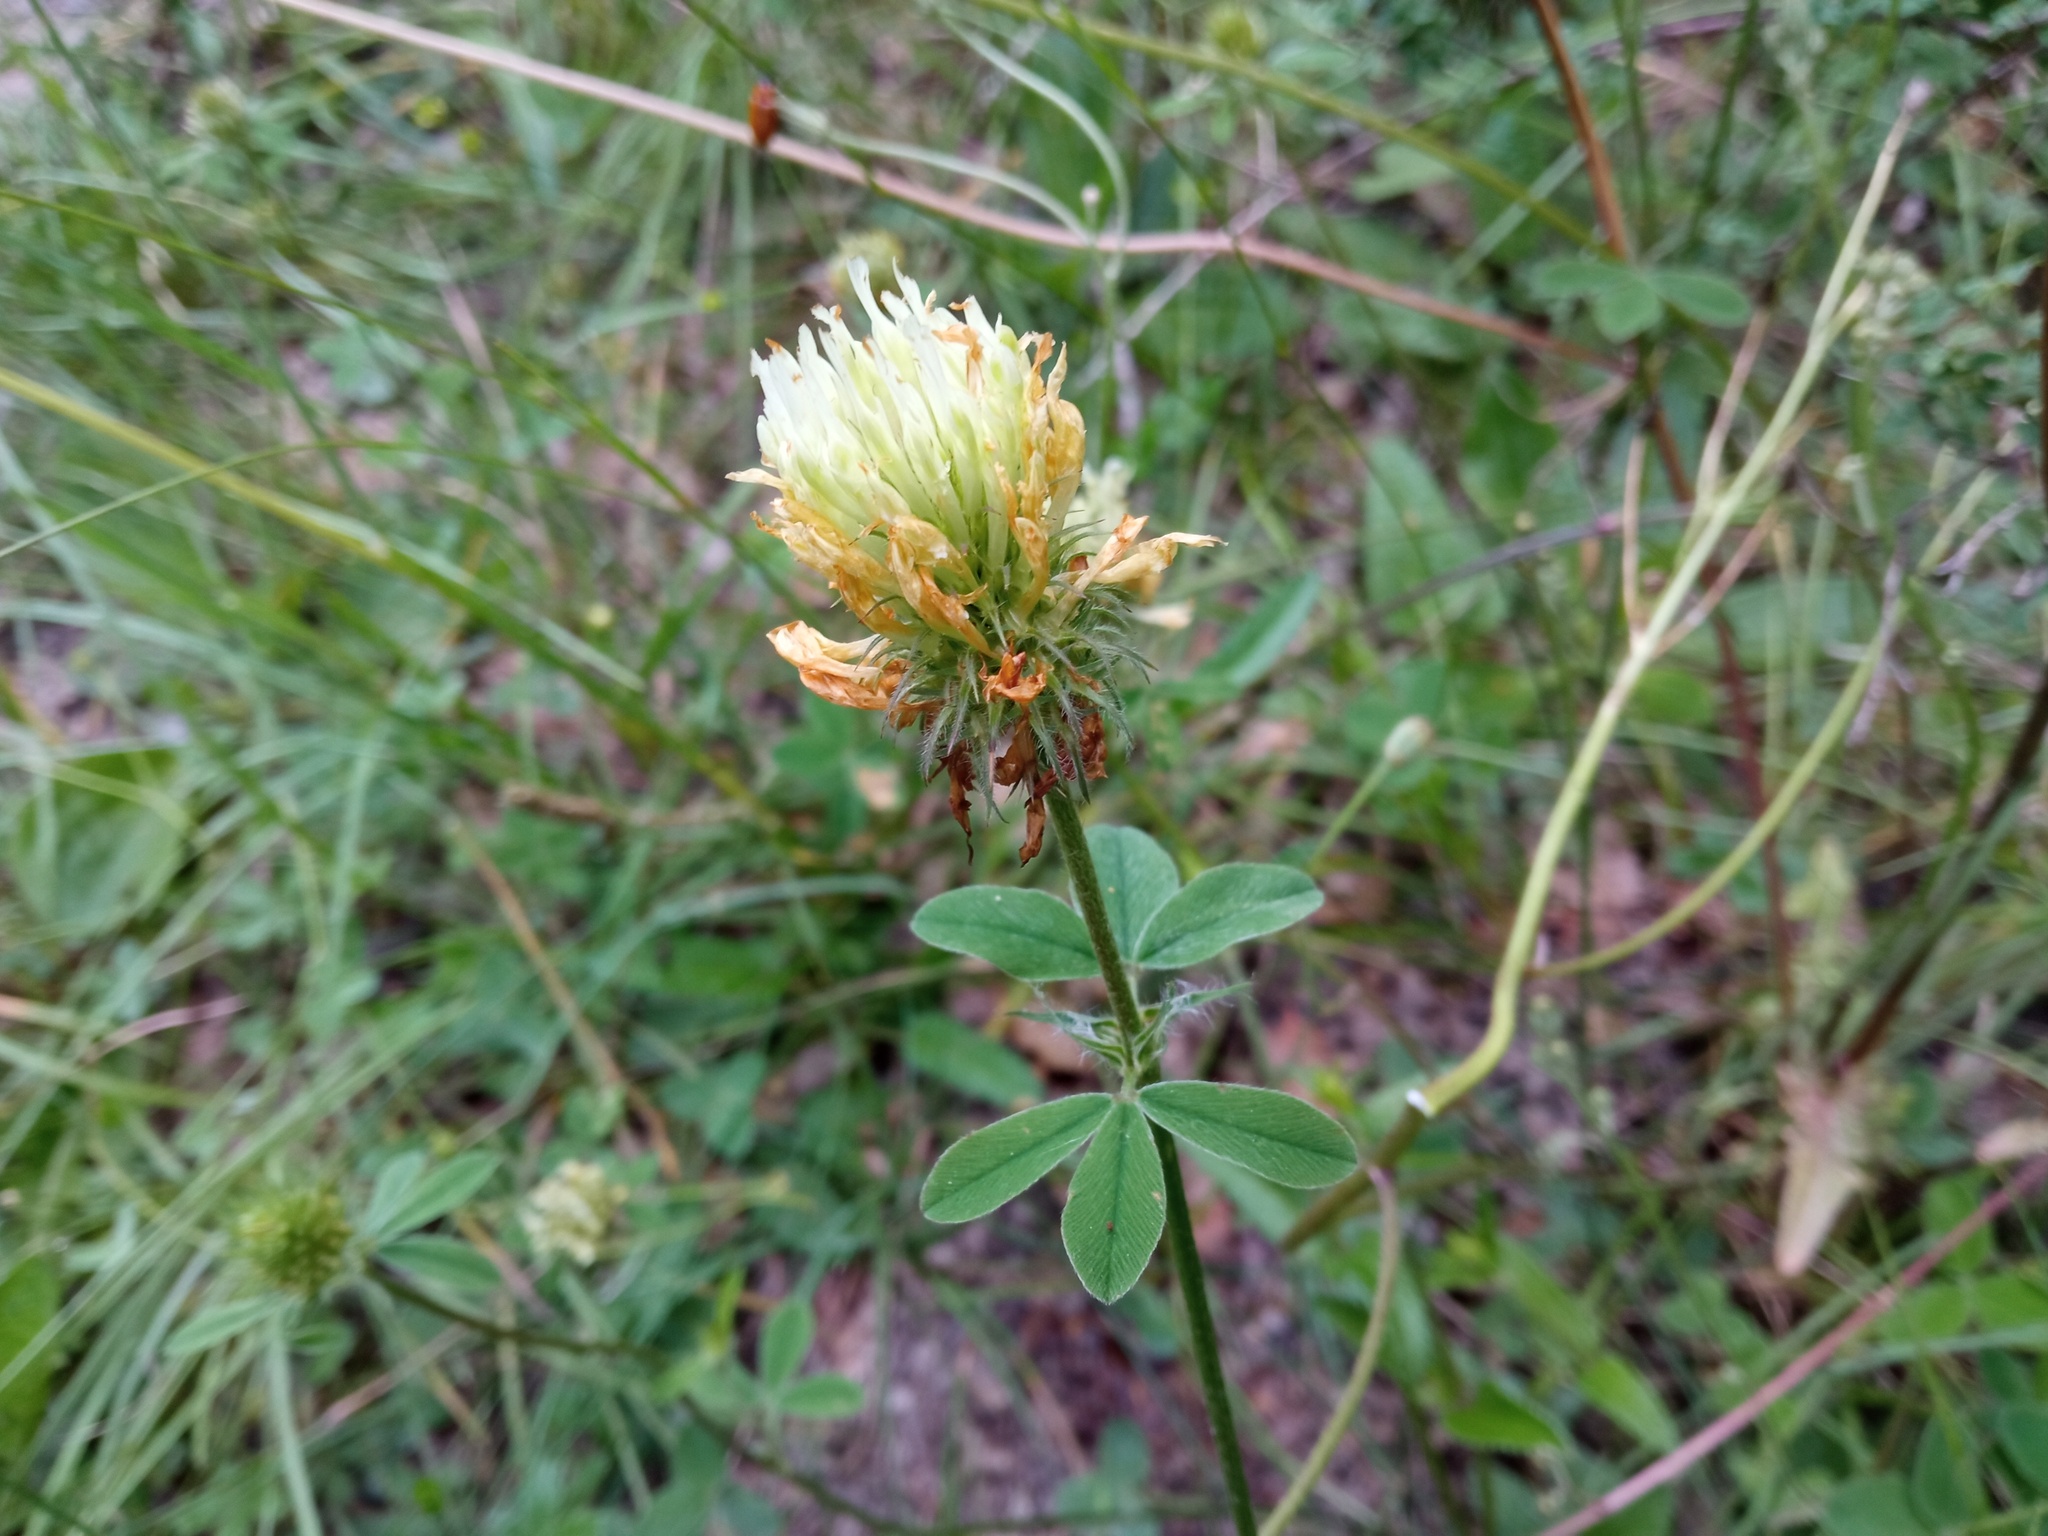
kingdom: Plantae
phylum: Tracheophyta
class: Magnoliopsida
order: Fabales
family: Fabaceae
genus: Trifolium
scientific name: Trifolium ochroleucon
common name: Sulphur clover
